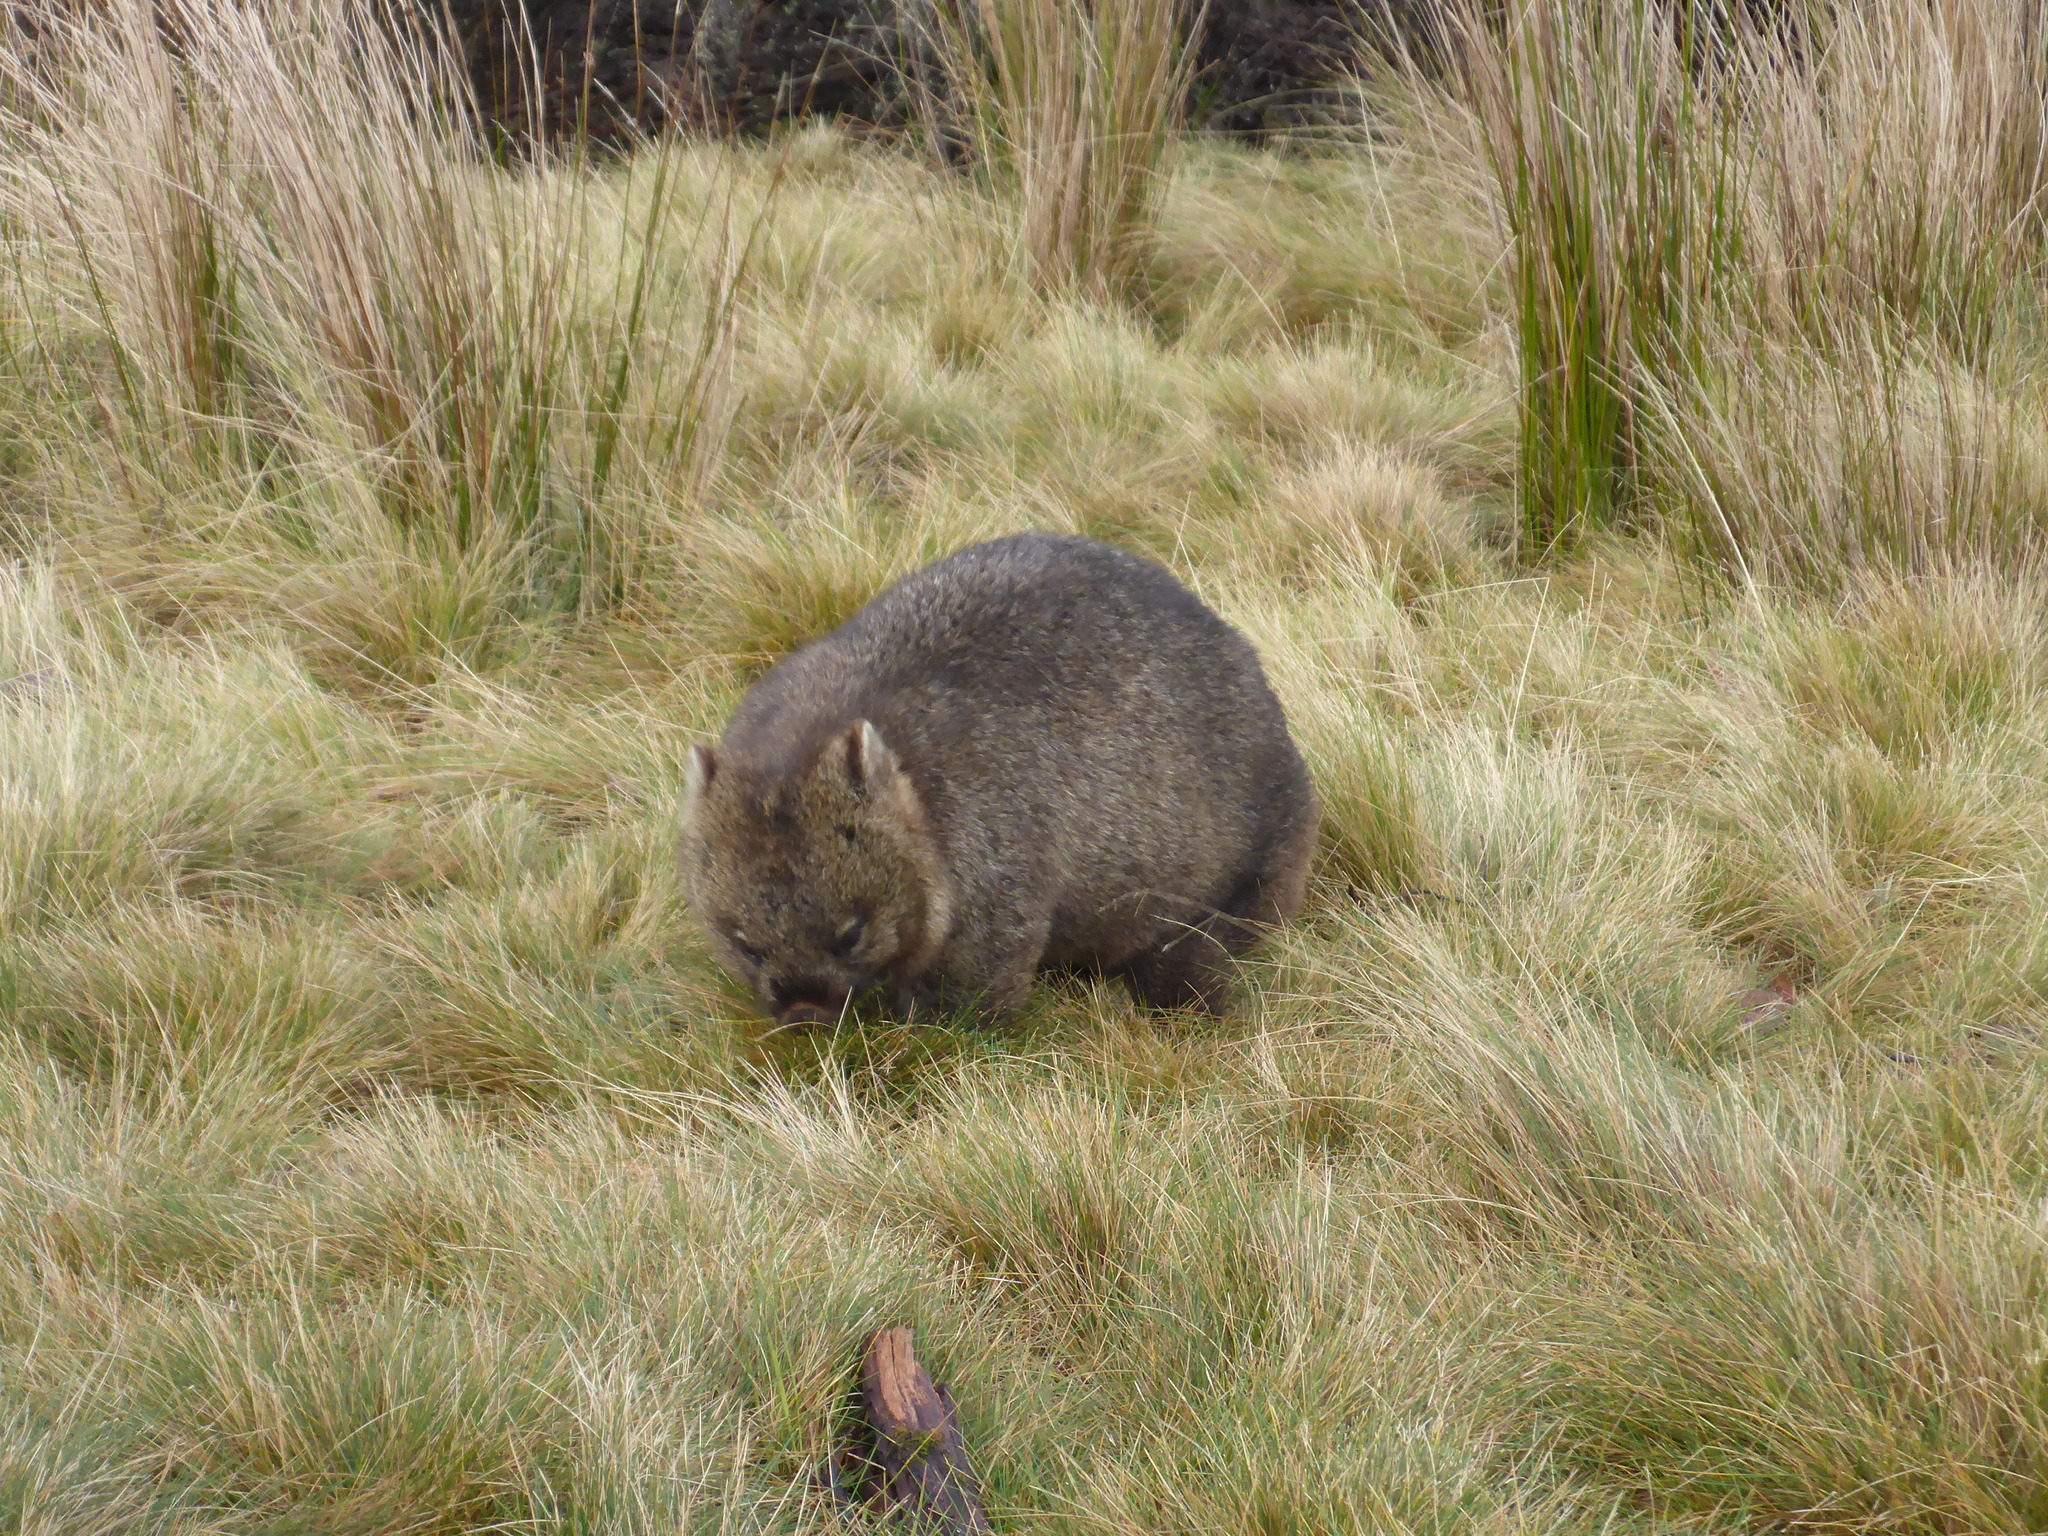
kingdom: Animalia
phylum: Chordata
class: Mammalia
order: Diprotodontia
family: Vombatidae
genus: Vombatus
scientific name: Vombatus ursinus
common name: Common wombat
